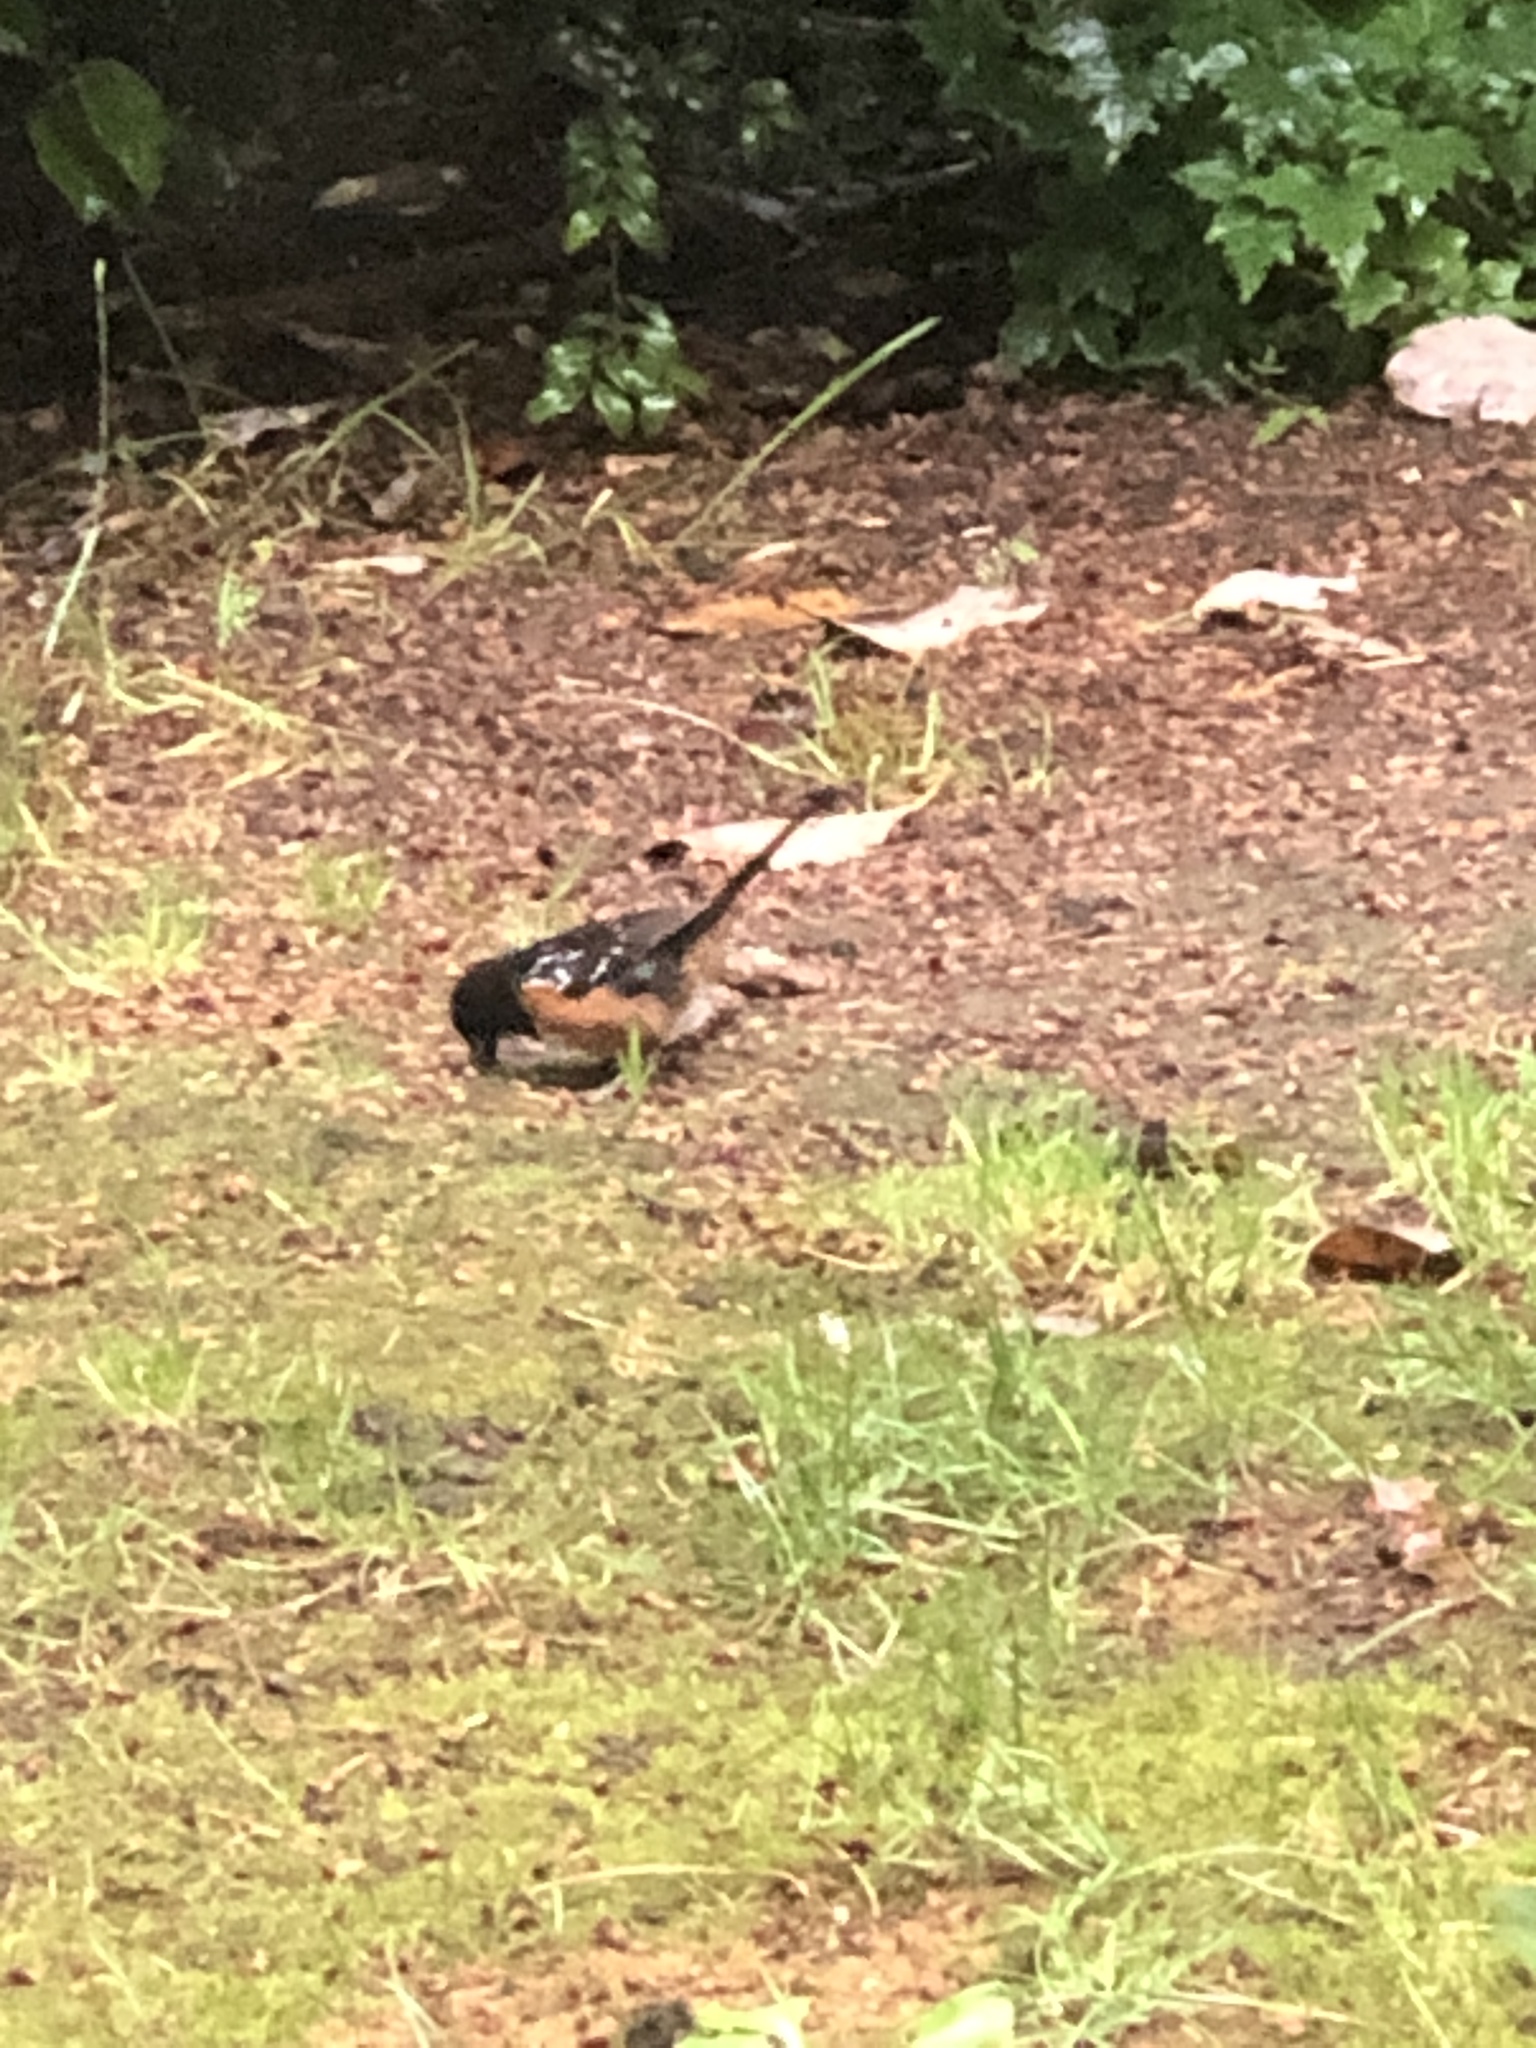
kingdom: Animalia
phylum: Chordata
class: Aves
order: Passeriformes
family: Passerellidae
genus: Pipilo
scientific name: Pipilo maculatus
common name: Spotted towhee
